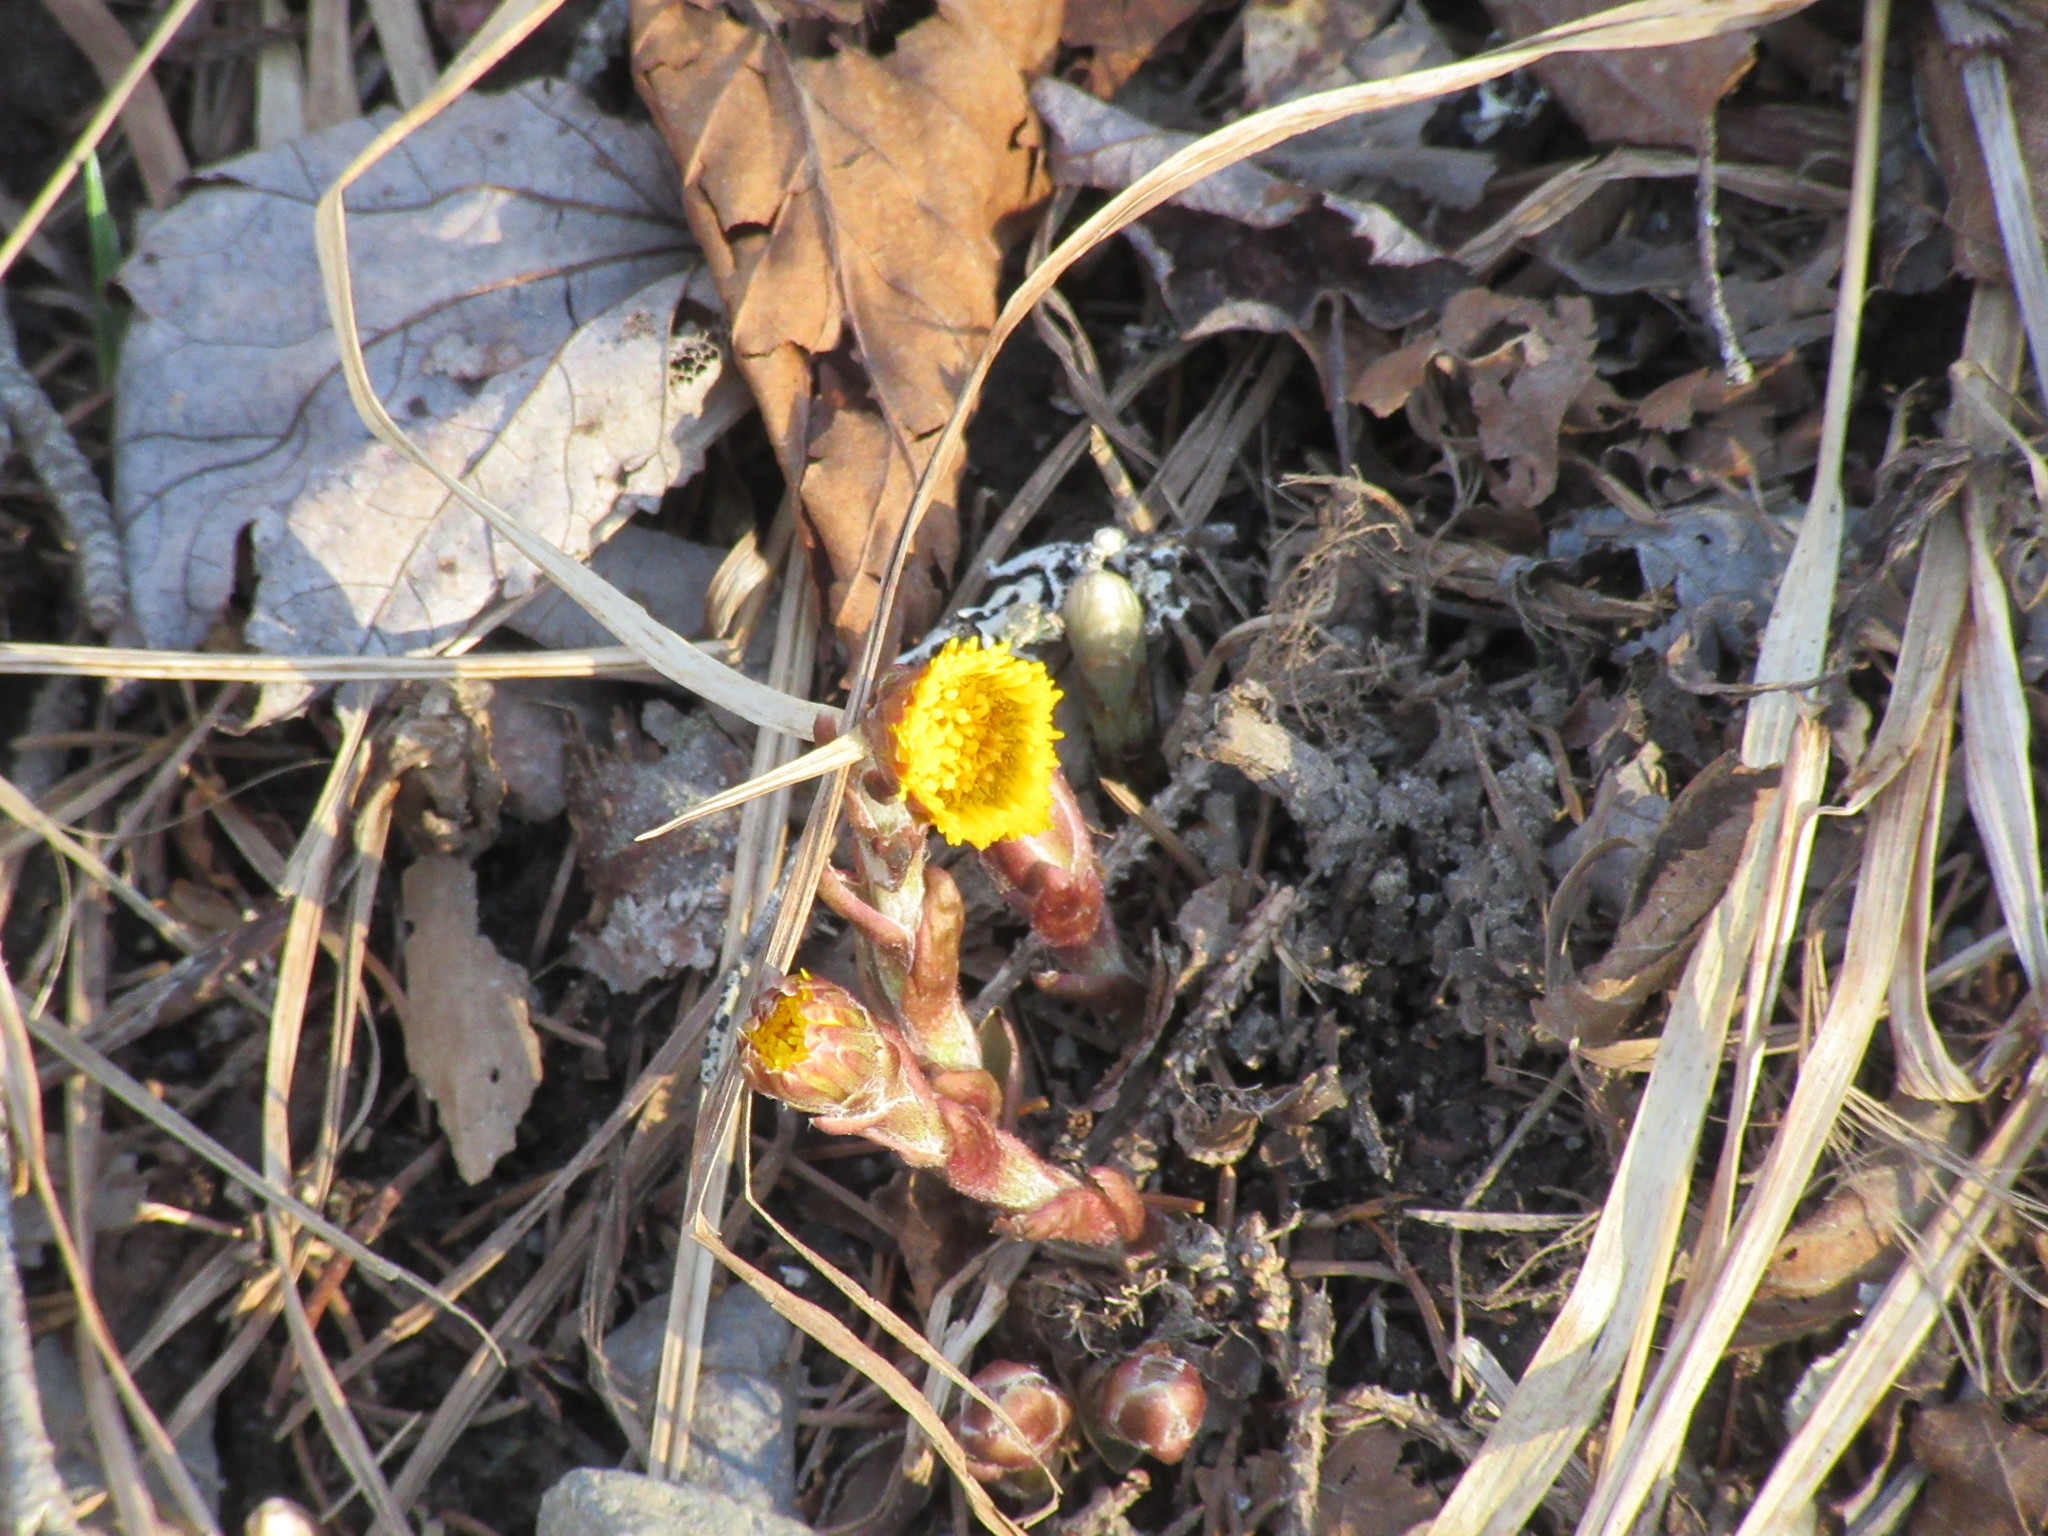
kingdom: Plantae
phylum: Tracheophyta
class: Magnoliopsida
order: Asterales
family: Asteraceae
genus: Tussilago
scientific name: Tussilago farfara
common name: Coltsfoot
